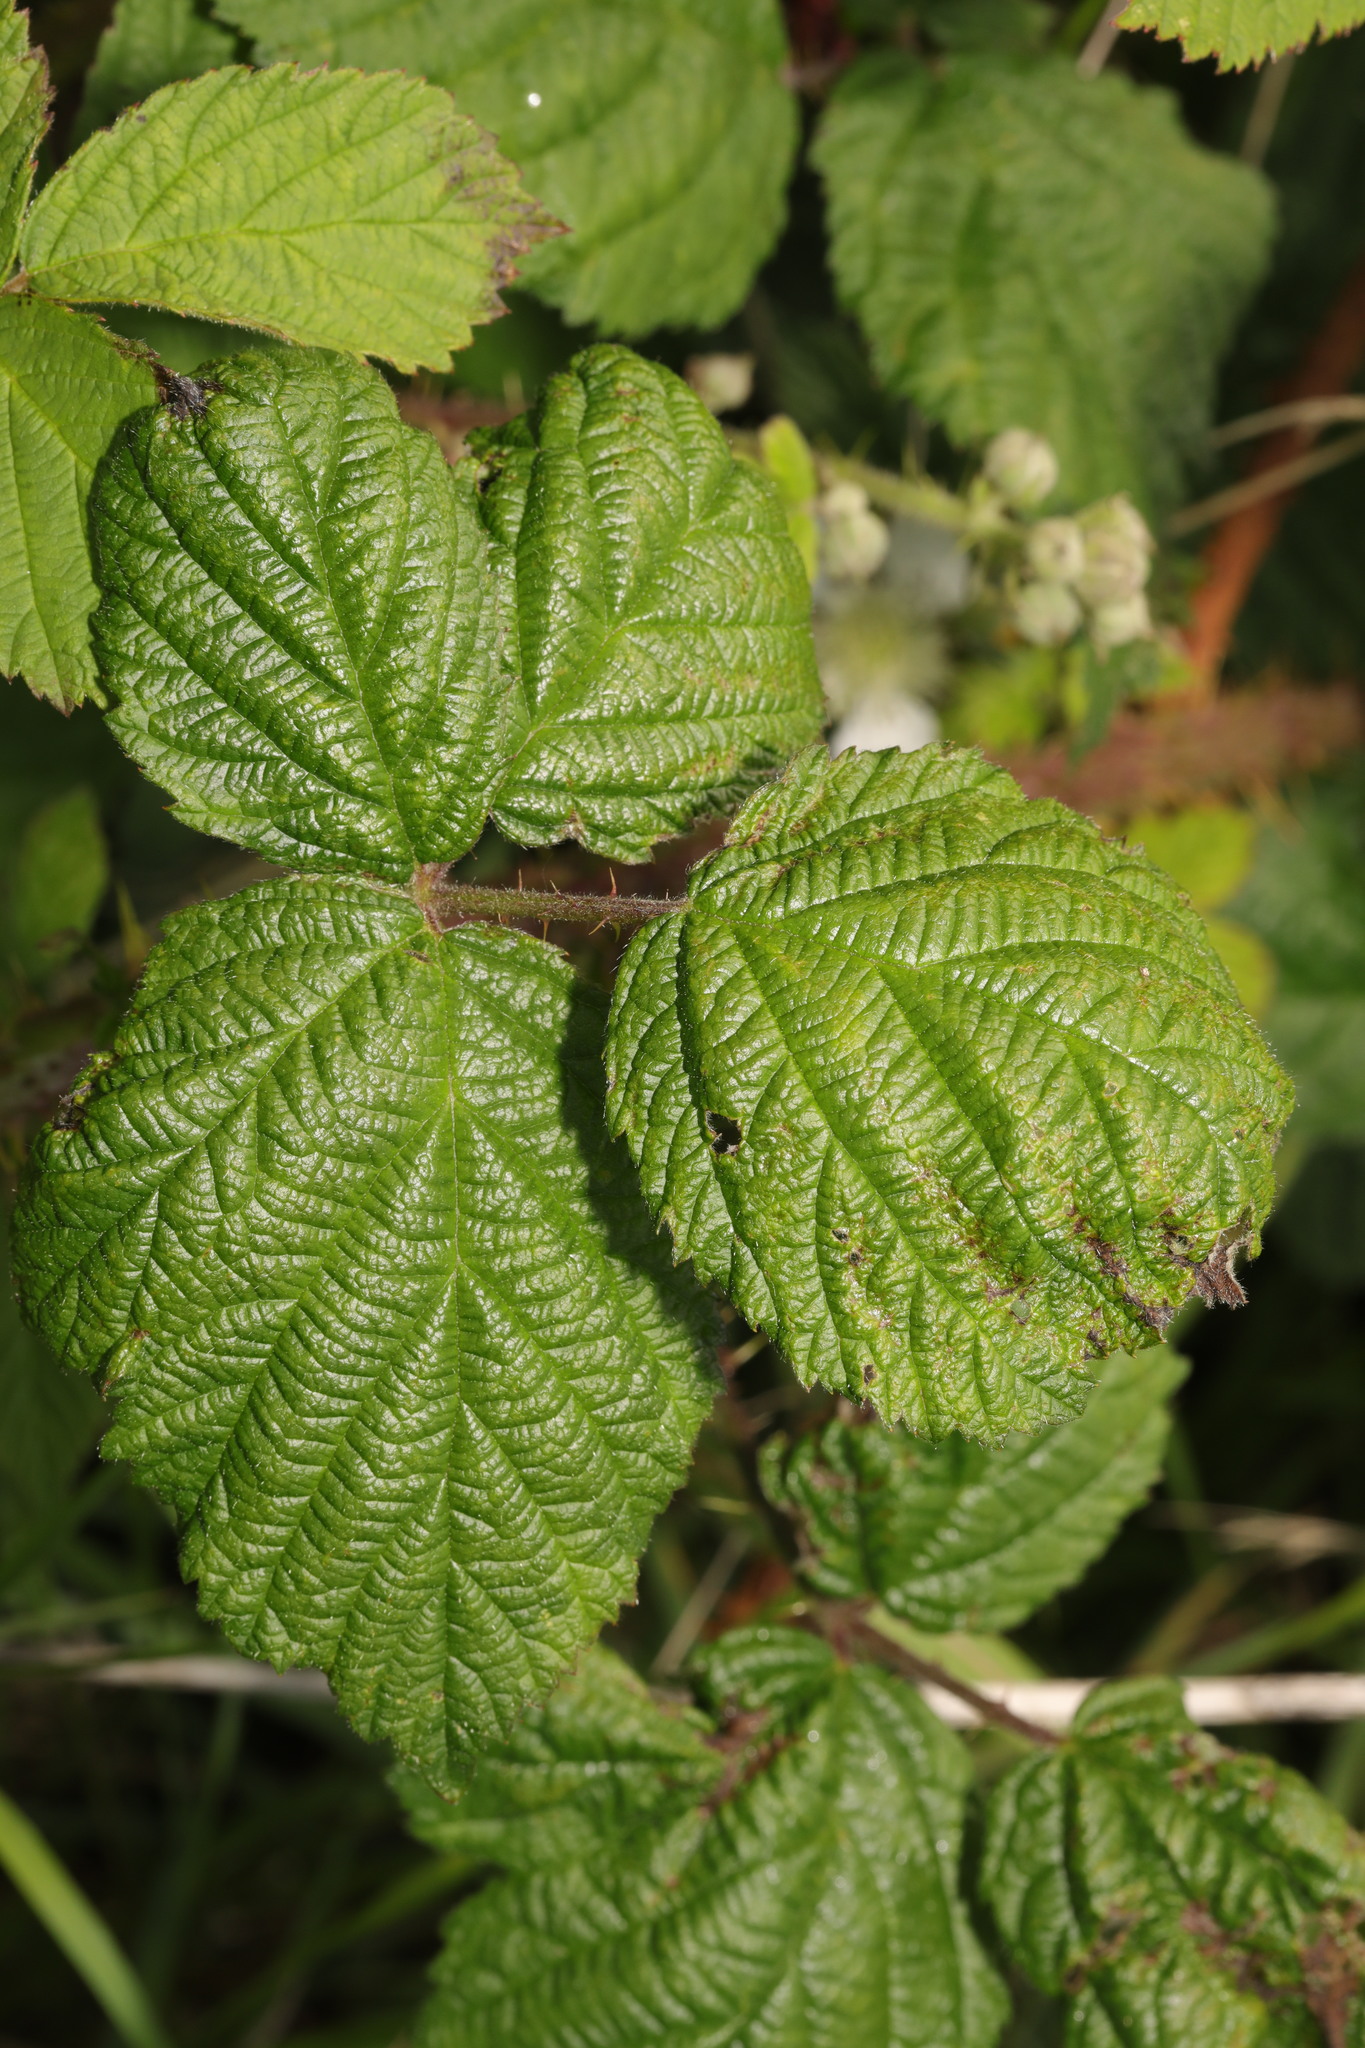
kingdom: Plantae
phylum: Tracheophyta
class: Magnoliopsida
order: Rosales
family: Rosaceae
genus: Rubus
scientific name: Rubus horrefactus
